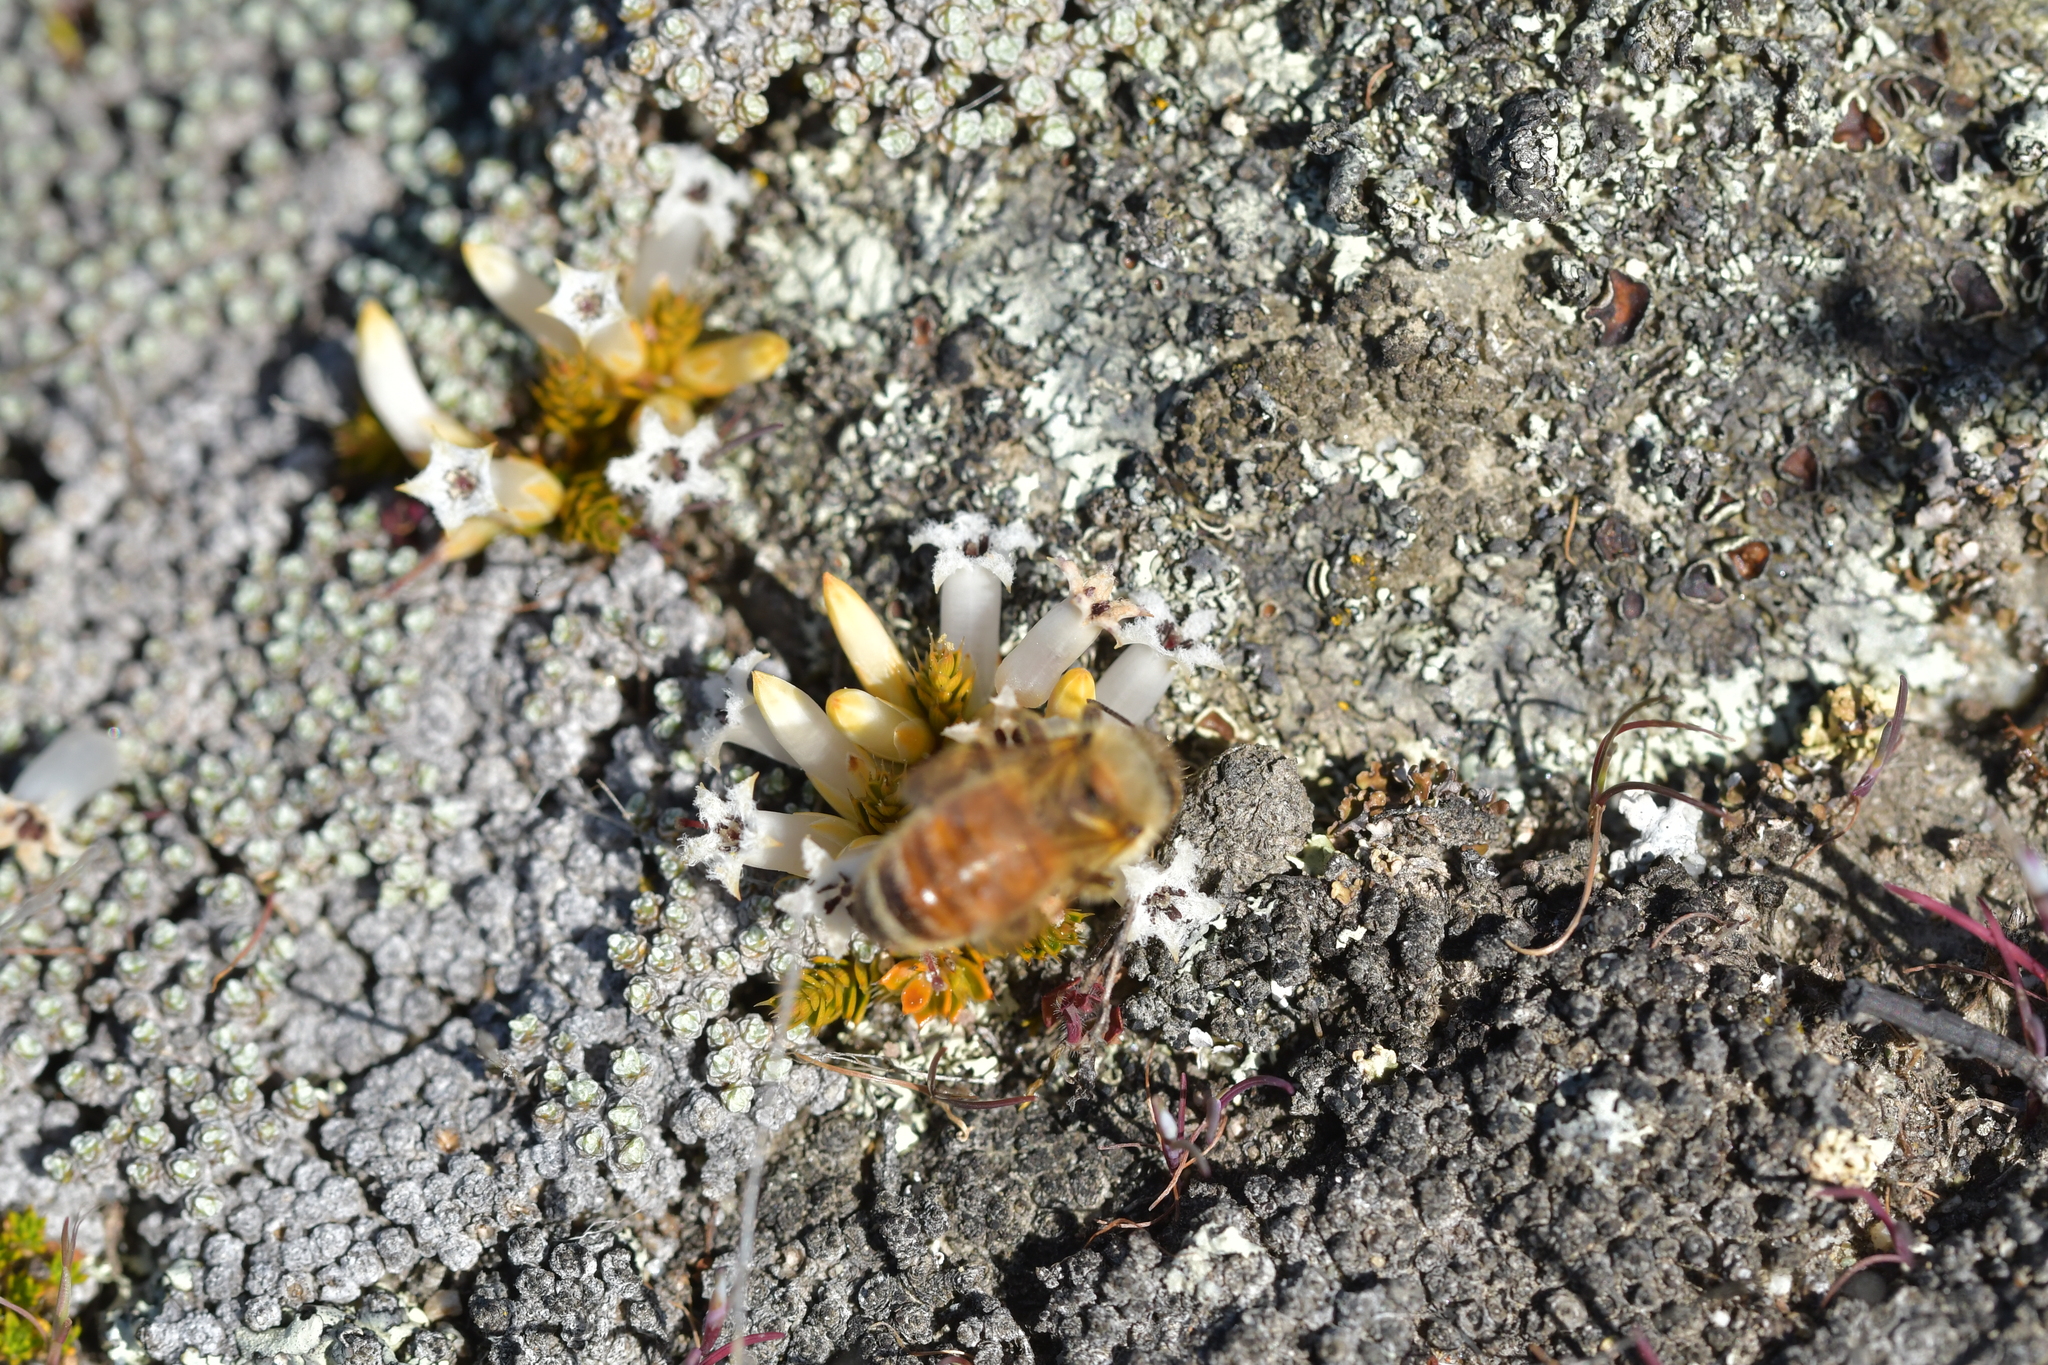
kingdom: Plantae
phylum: Tracheophyta
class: Magnoliopsida
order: Ericales
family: Ericaceae
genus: Styphelia
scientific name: Styphelia nana
